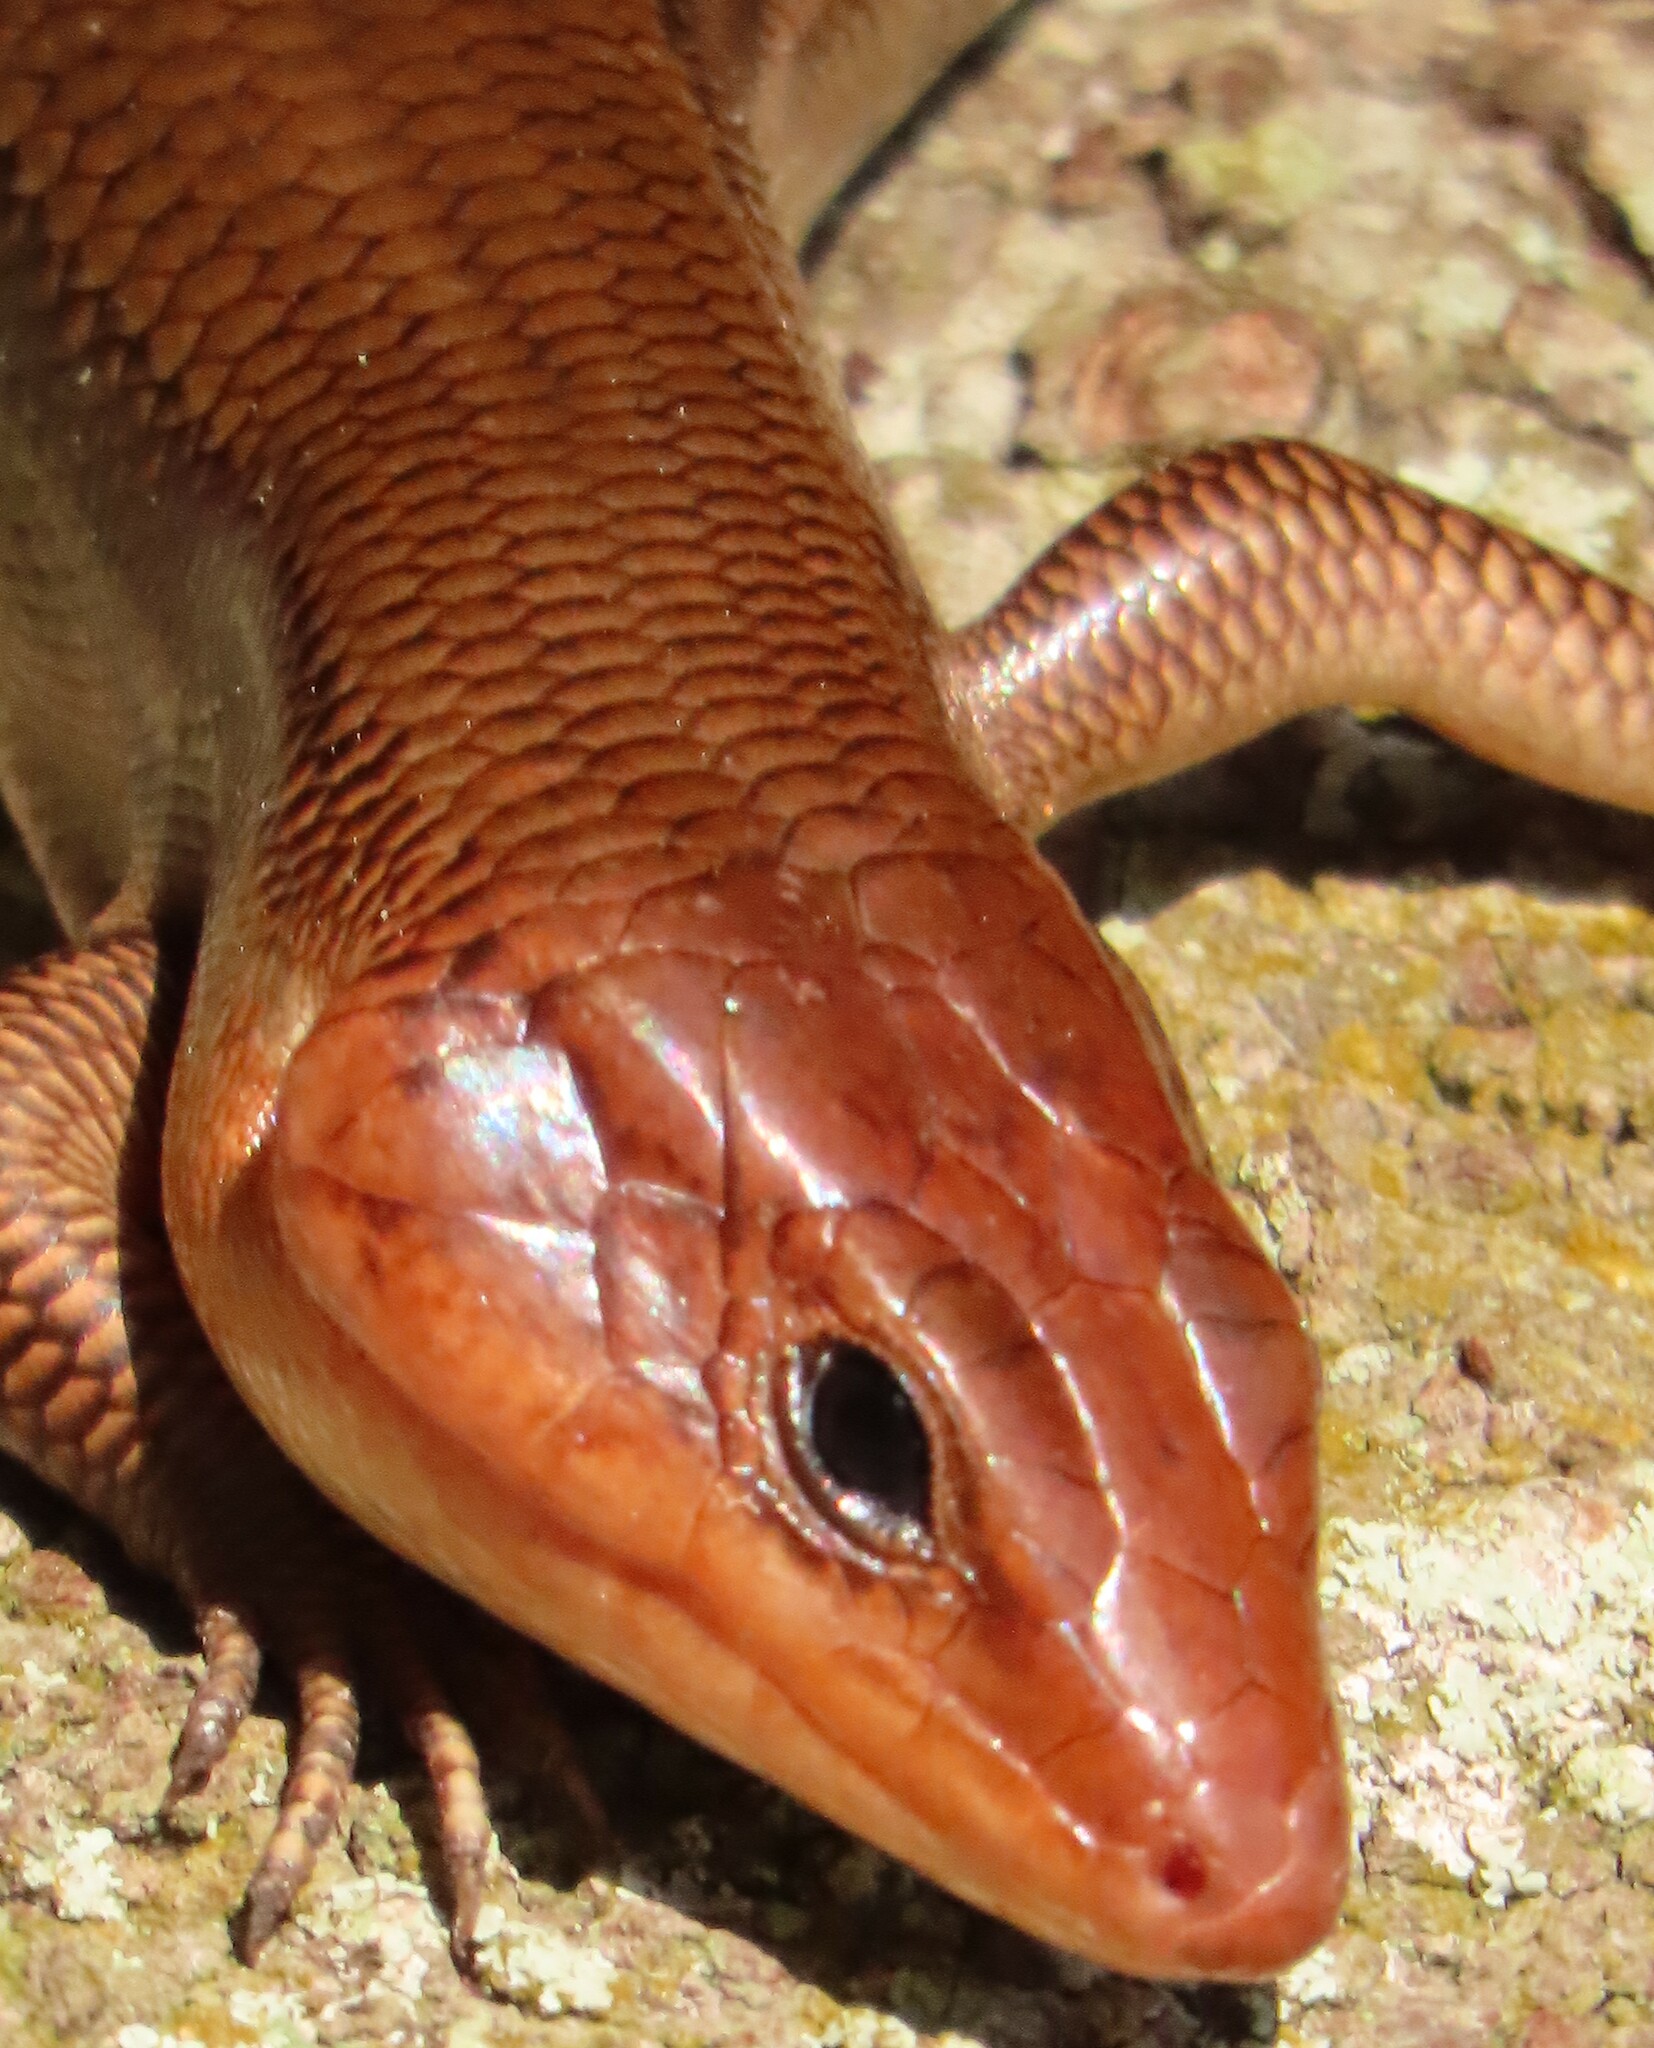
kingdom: Animalia
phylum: Chordata
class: Squamata
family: Scincidae
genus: Plestiodon
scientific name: Plestiodon laticeps
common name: Broadhead skink
